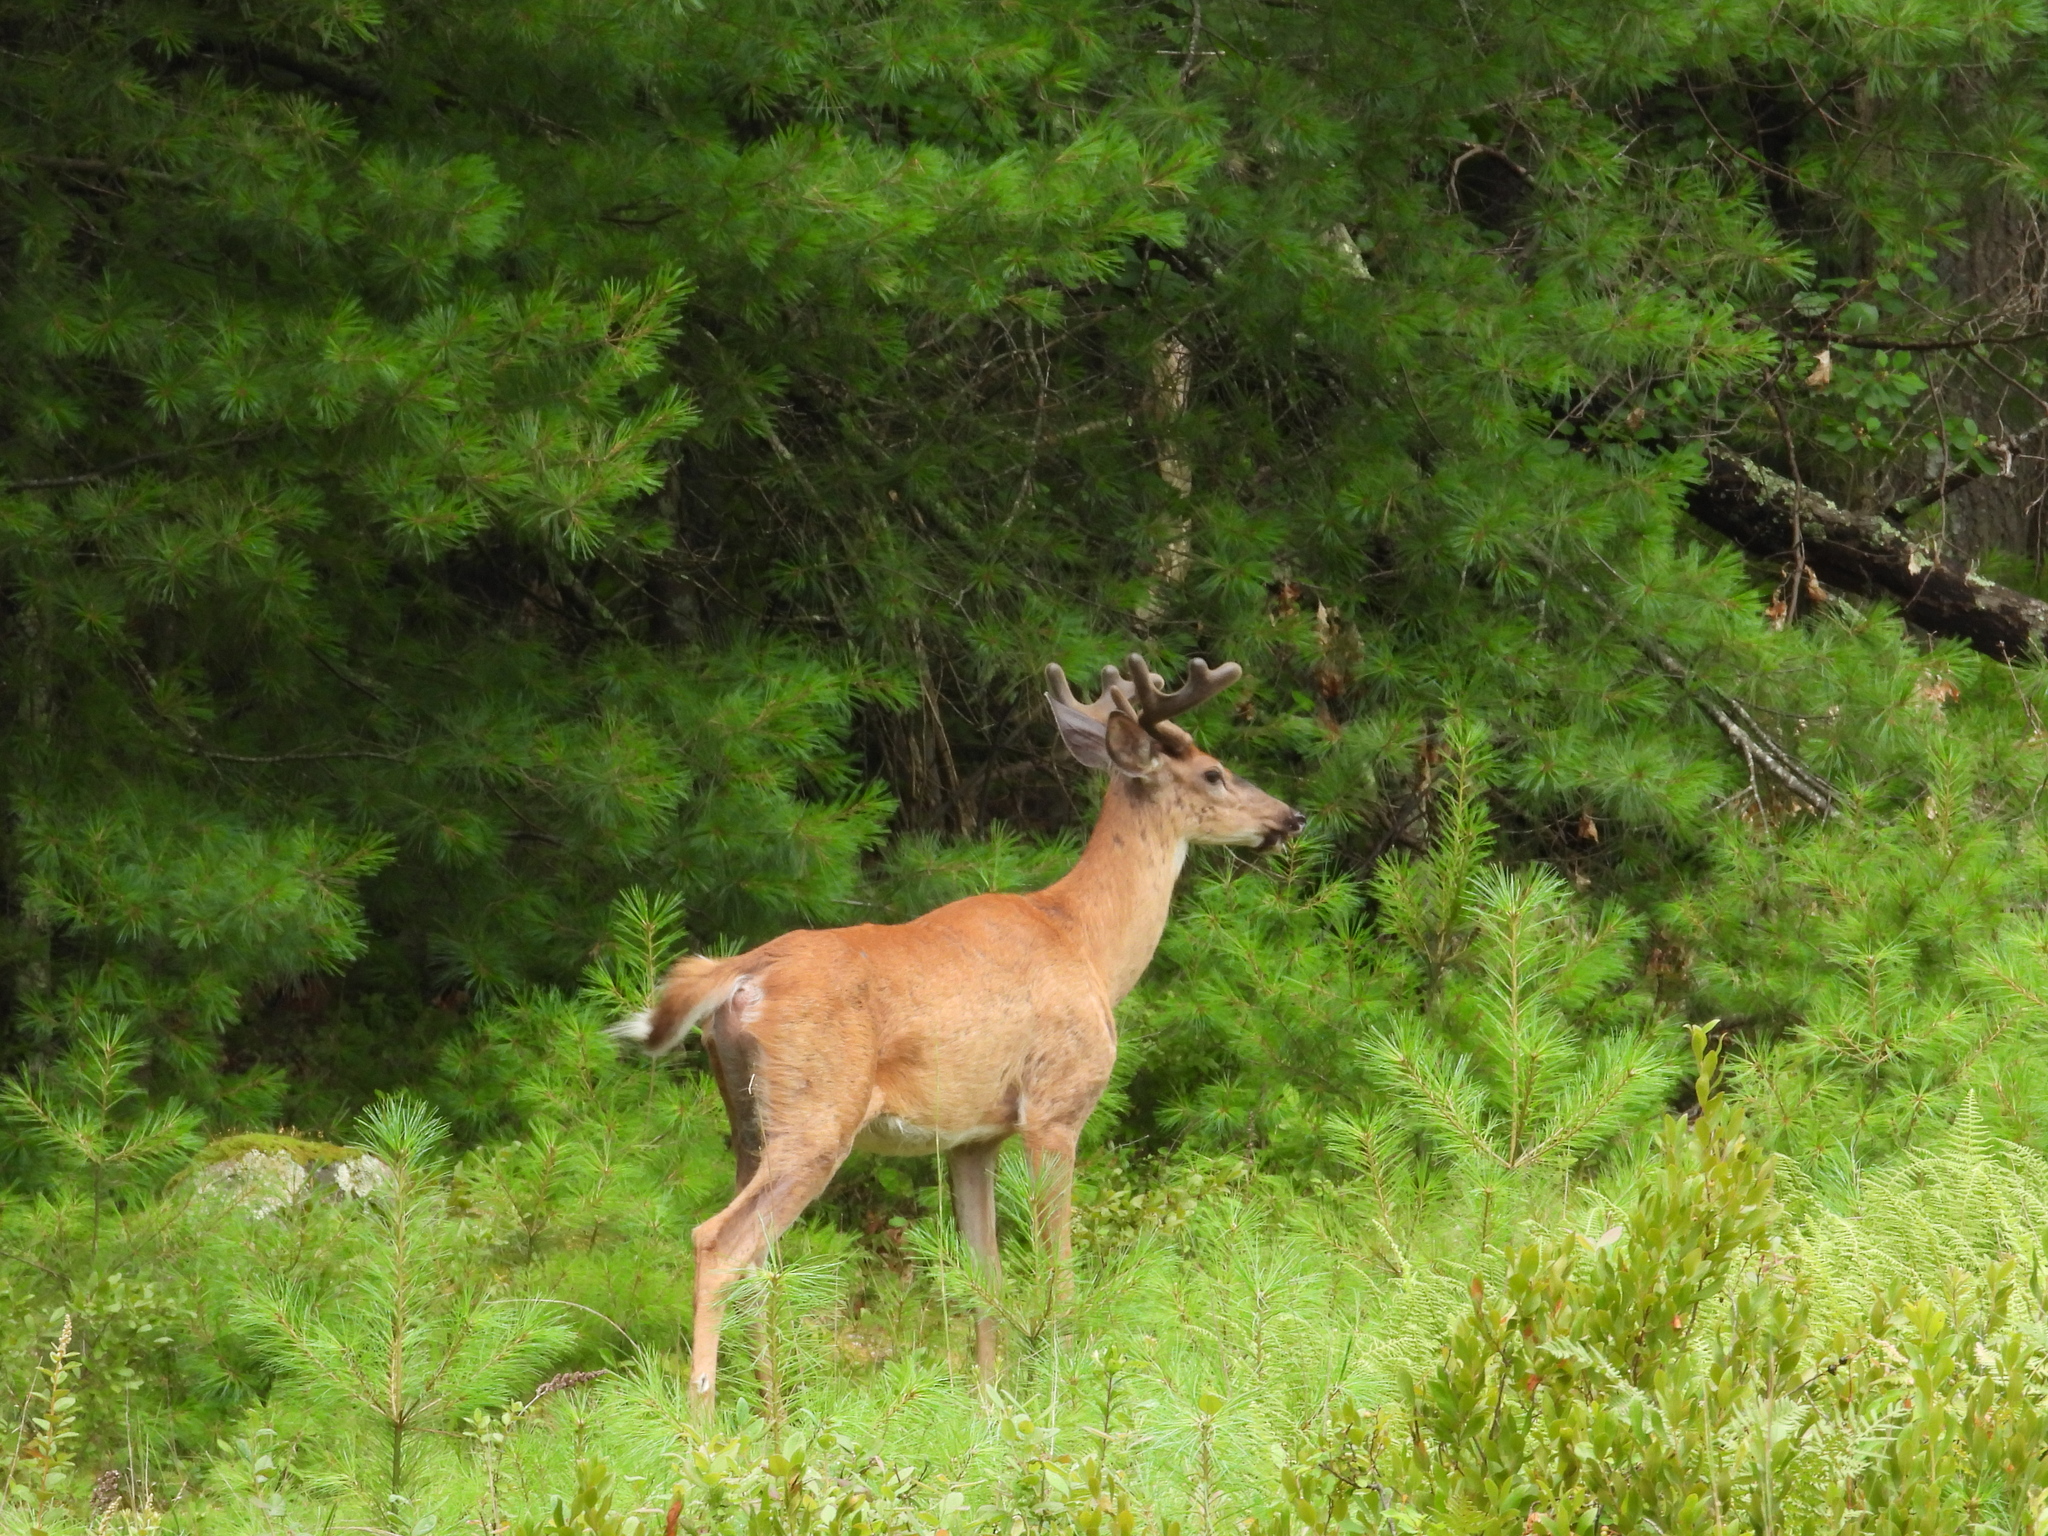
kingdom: Animalia
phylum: Chordata
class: Mammalia
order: Artiodactyla
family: Cervidae
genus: Odocoileus
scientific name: Odocoileus virginianus
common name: White-tailed deer
